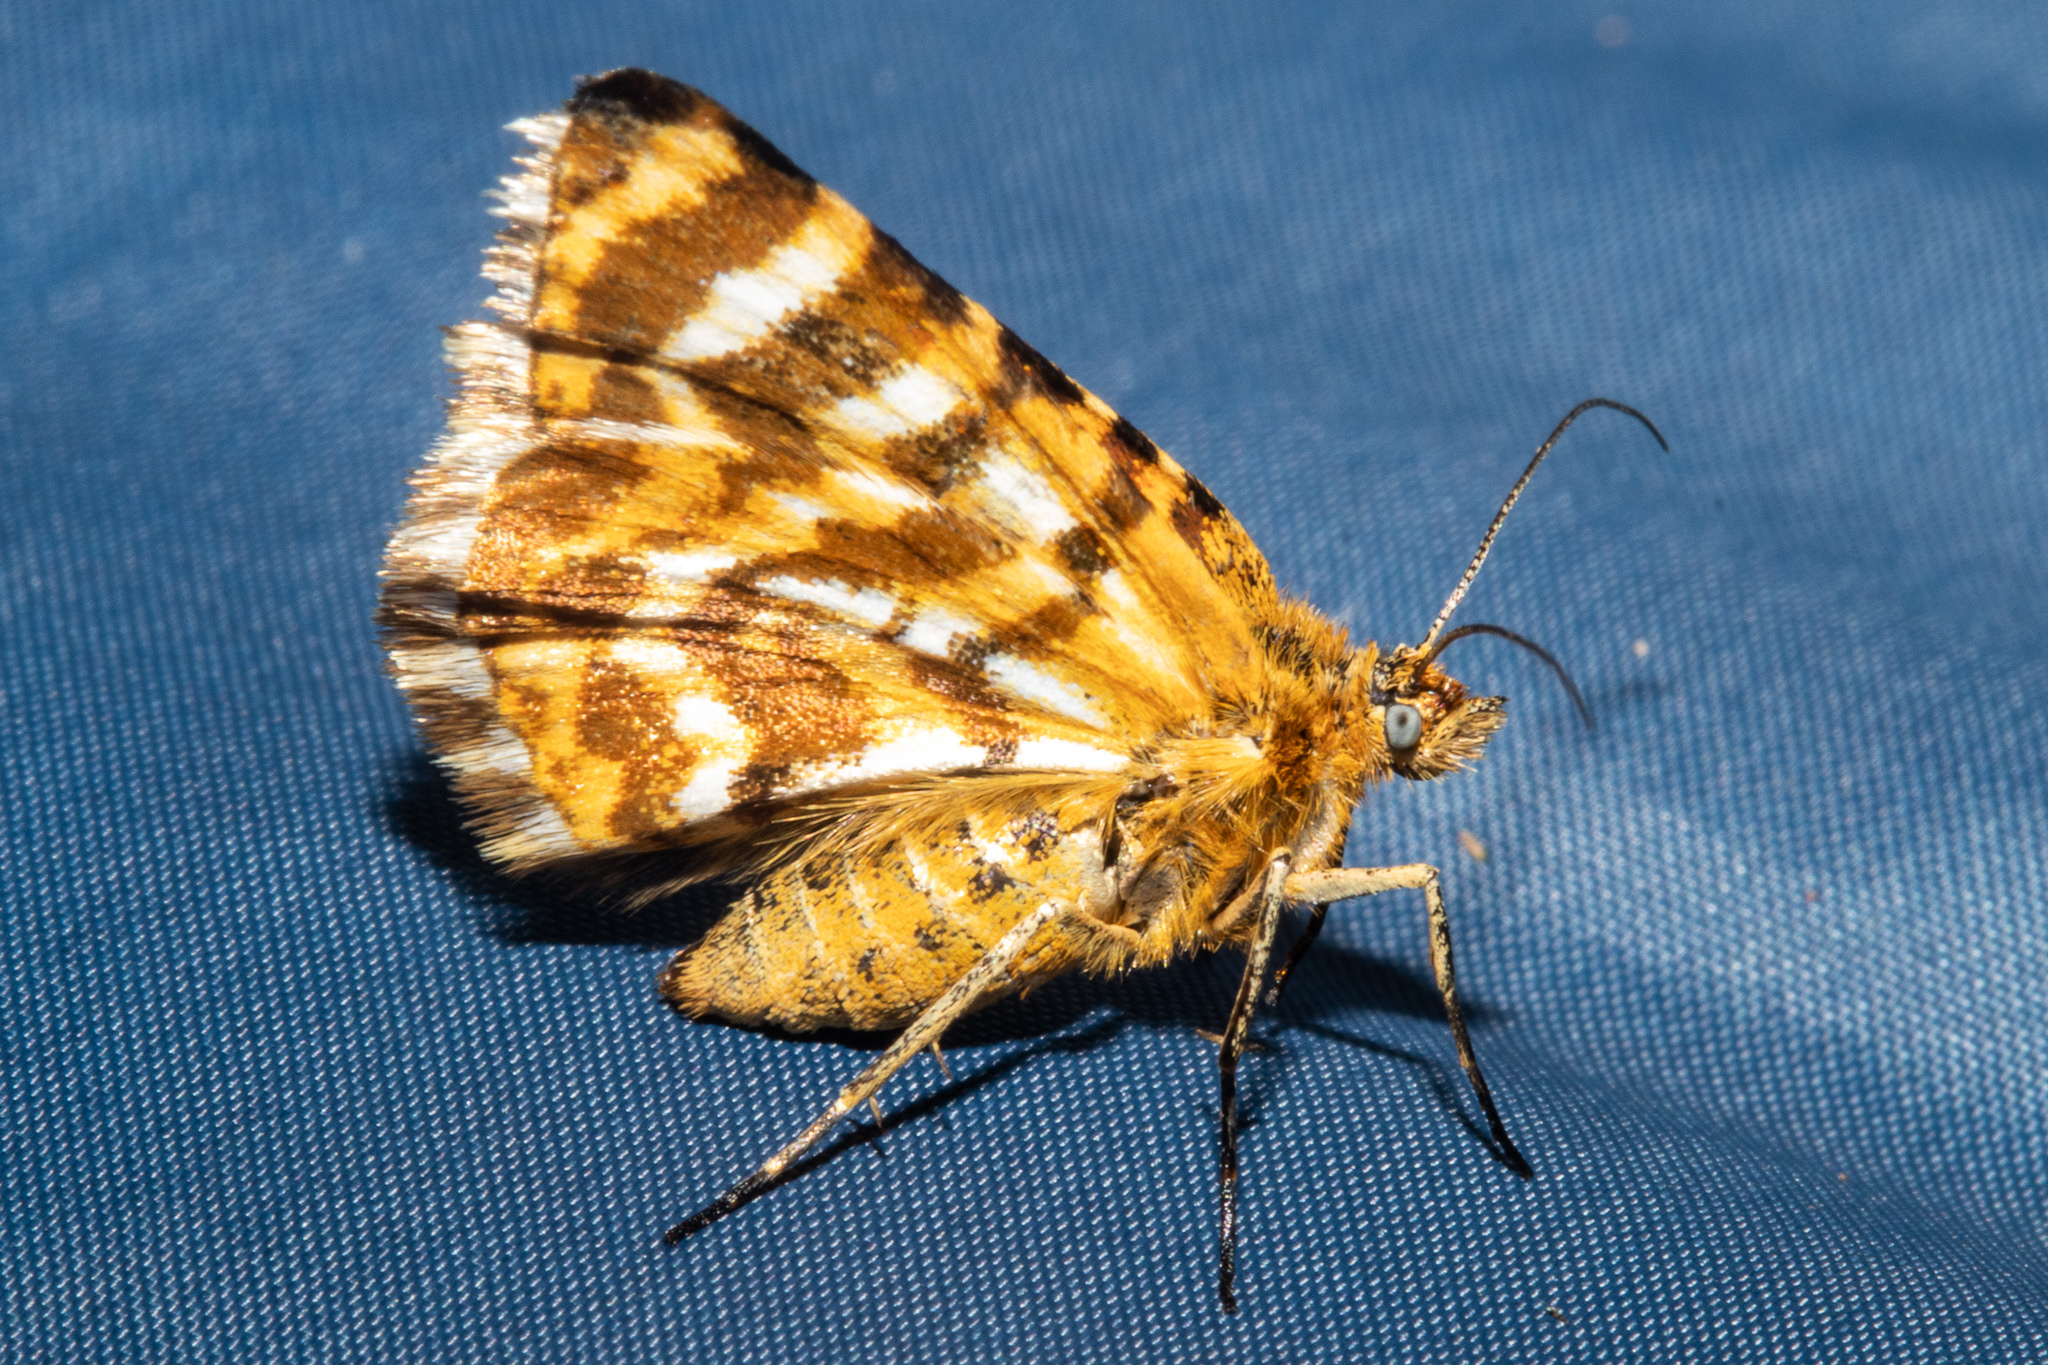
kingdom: Animalia
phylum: Arthropoda
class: Insecta
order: Lepidoptera
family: Geometridae
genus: Notoreas
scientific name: Notoreas galaxias
